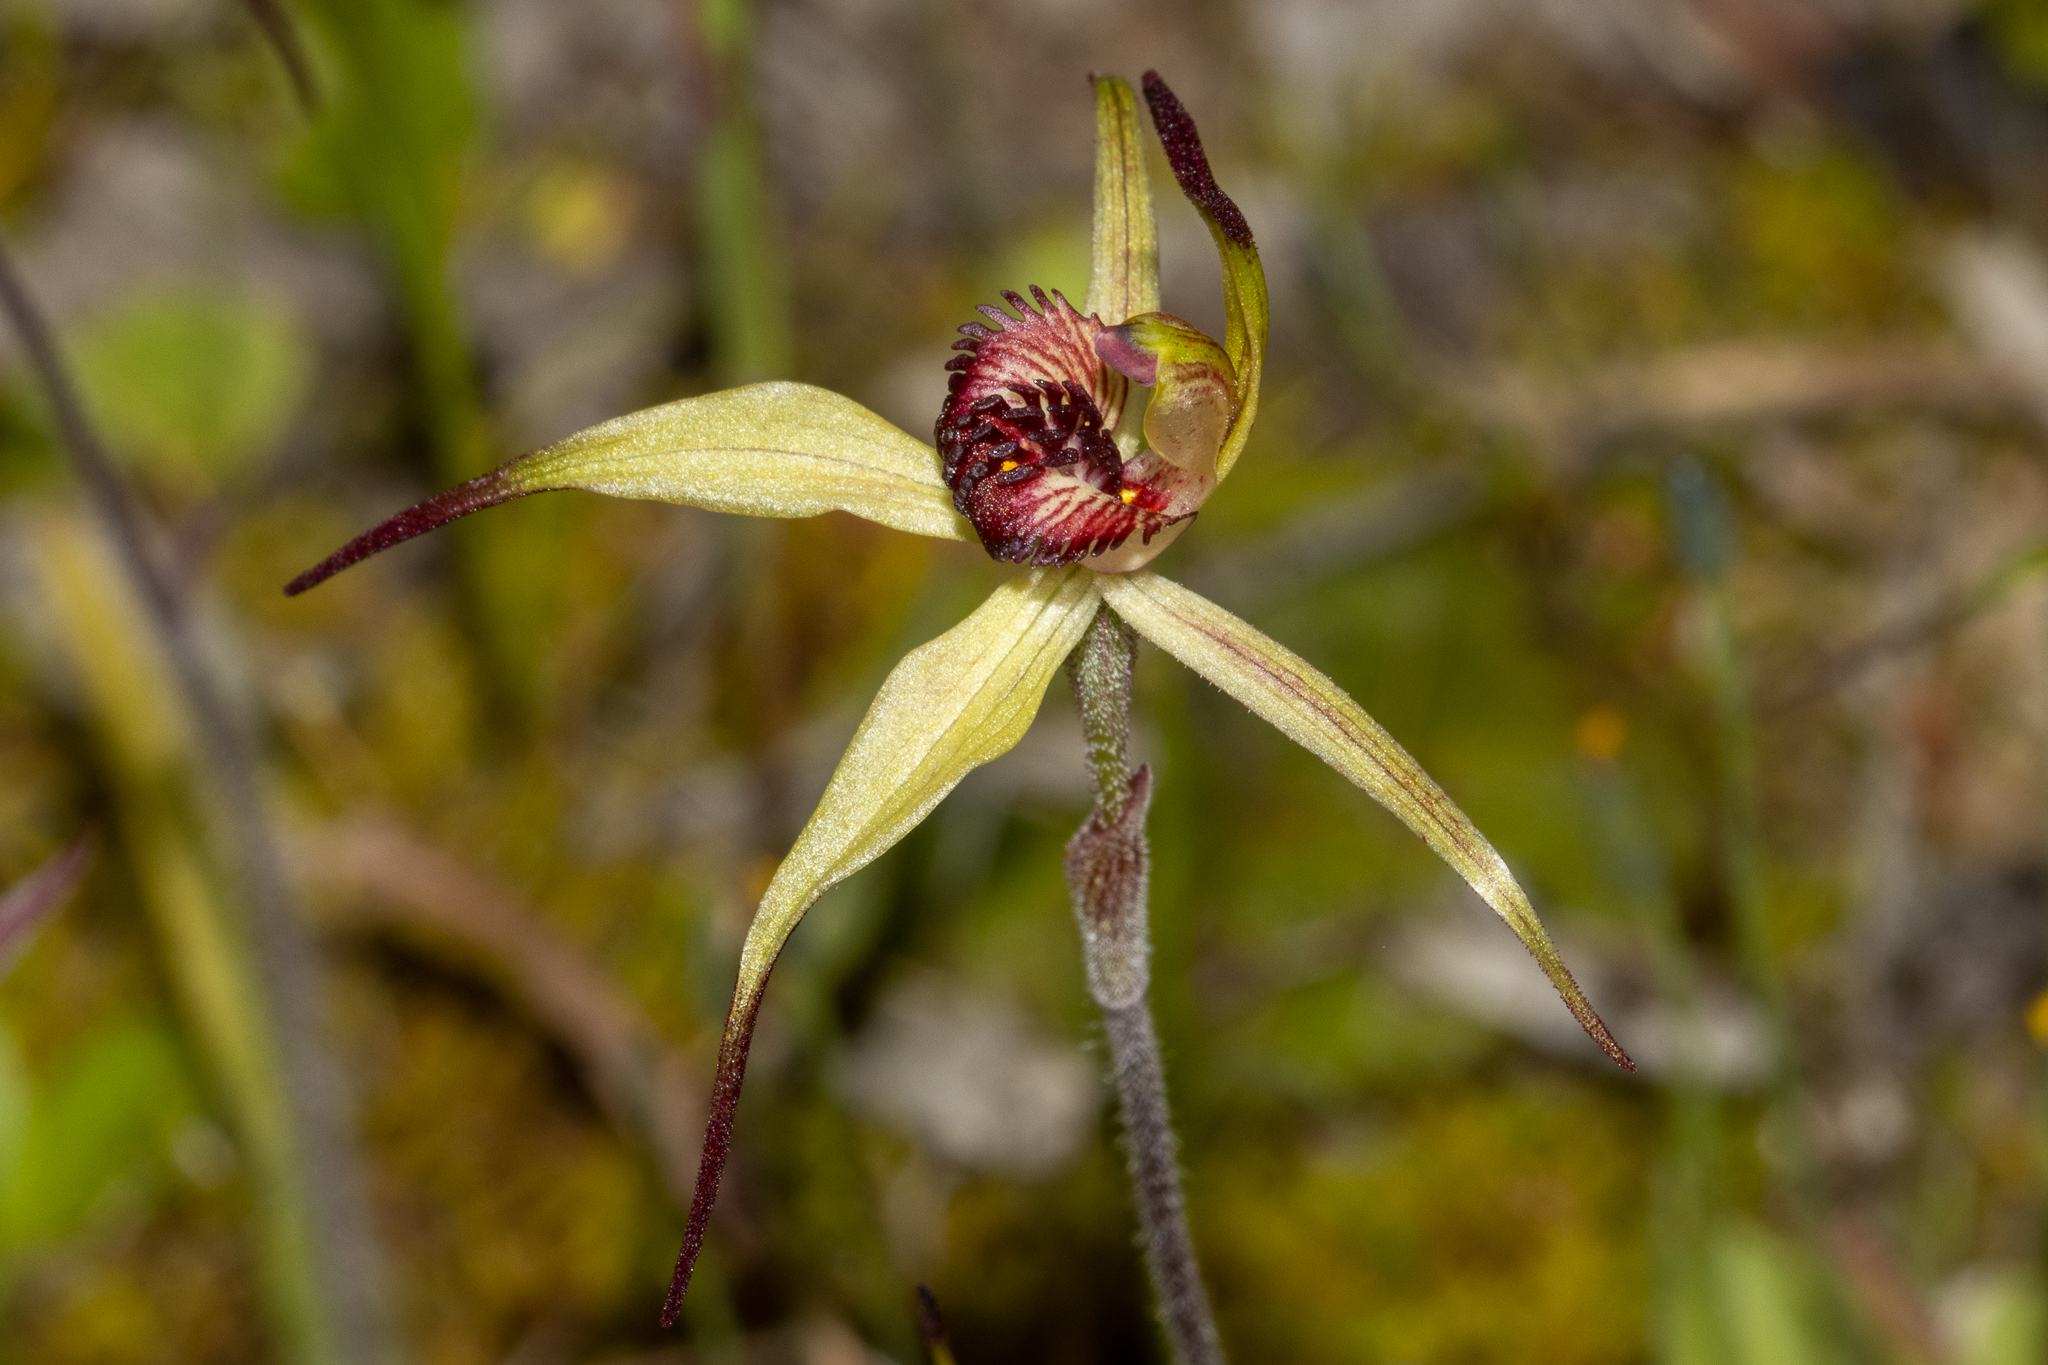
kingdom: Plantae
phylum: Tracheophyta
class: Liliopsida
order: Asparagales
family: Orchidaceae
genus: Caladenia
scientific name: Caladenia
